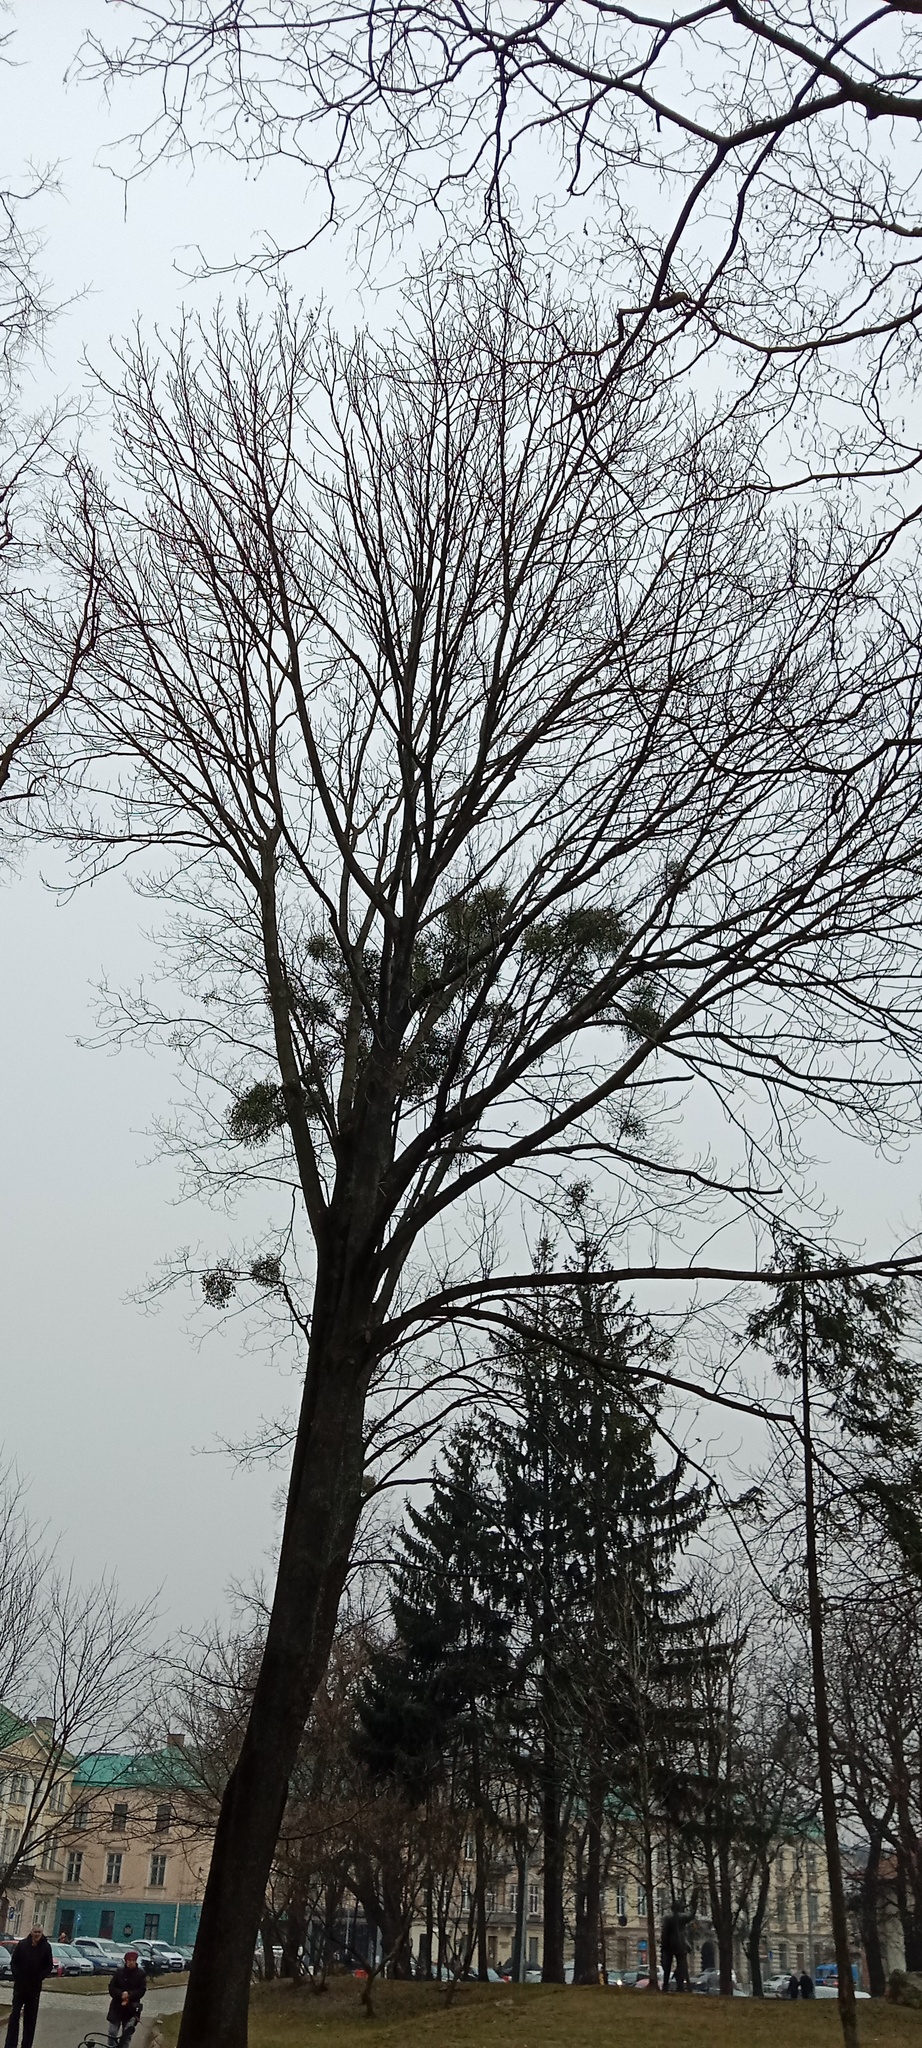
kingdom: Plantae
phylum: Tracheophyta
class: Magnoliopsida
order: Santalales
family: Viscaceae
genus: Viscum
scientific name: Viscum album
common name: Mistletoe
